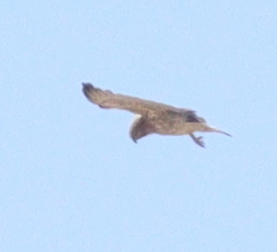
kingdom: Animalia
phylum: Chordata
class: Aves
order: Accipitriformes
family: Accipitridae
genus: Circaetus
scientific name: Circaetus gallicus
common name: Short-toed snake eagle
